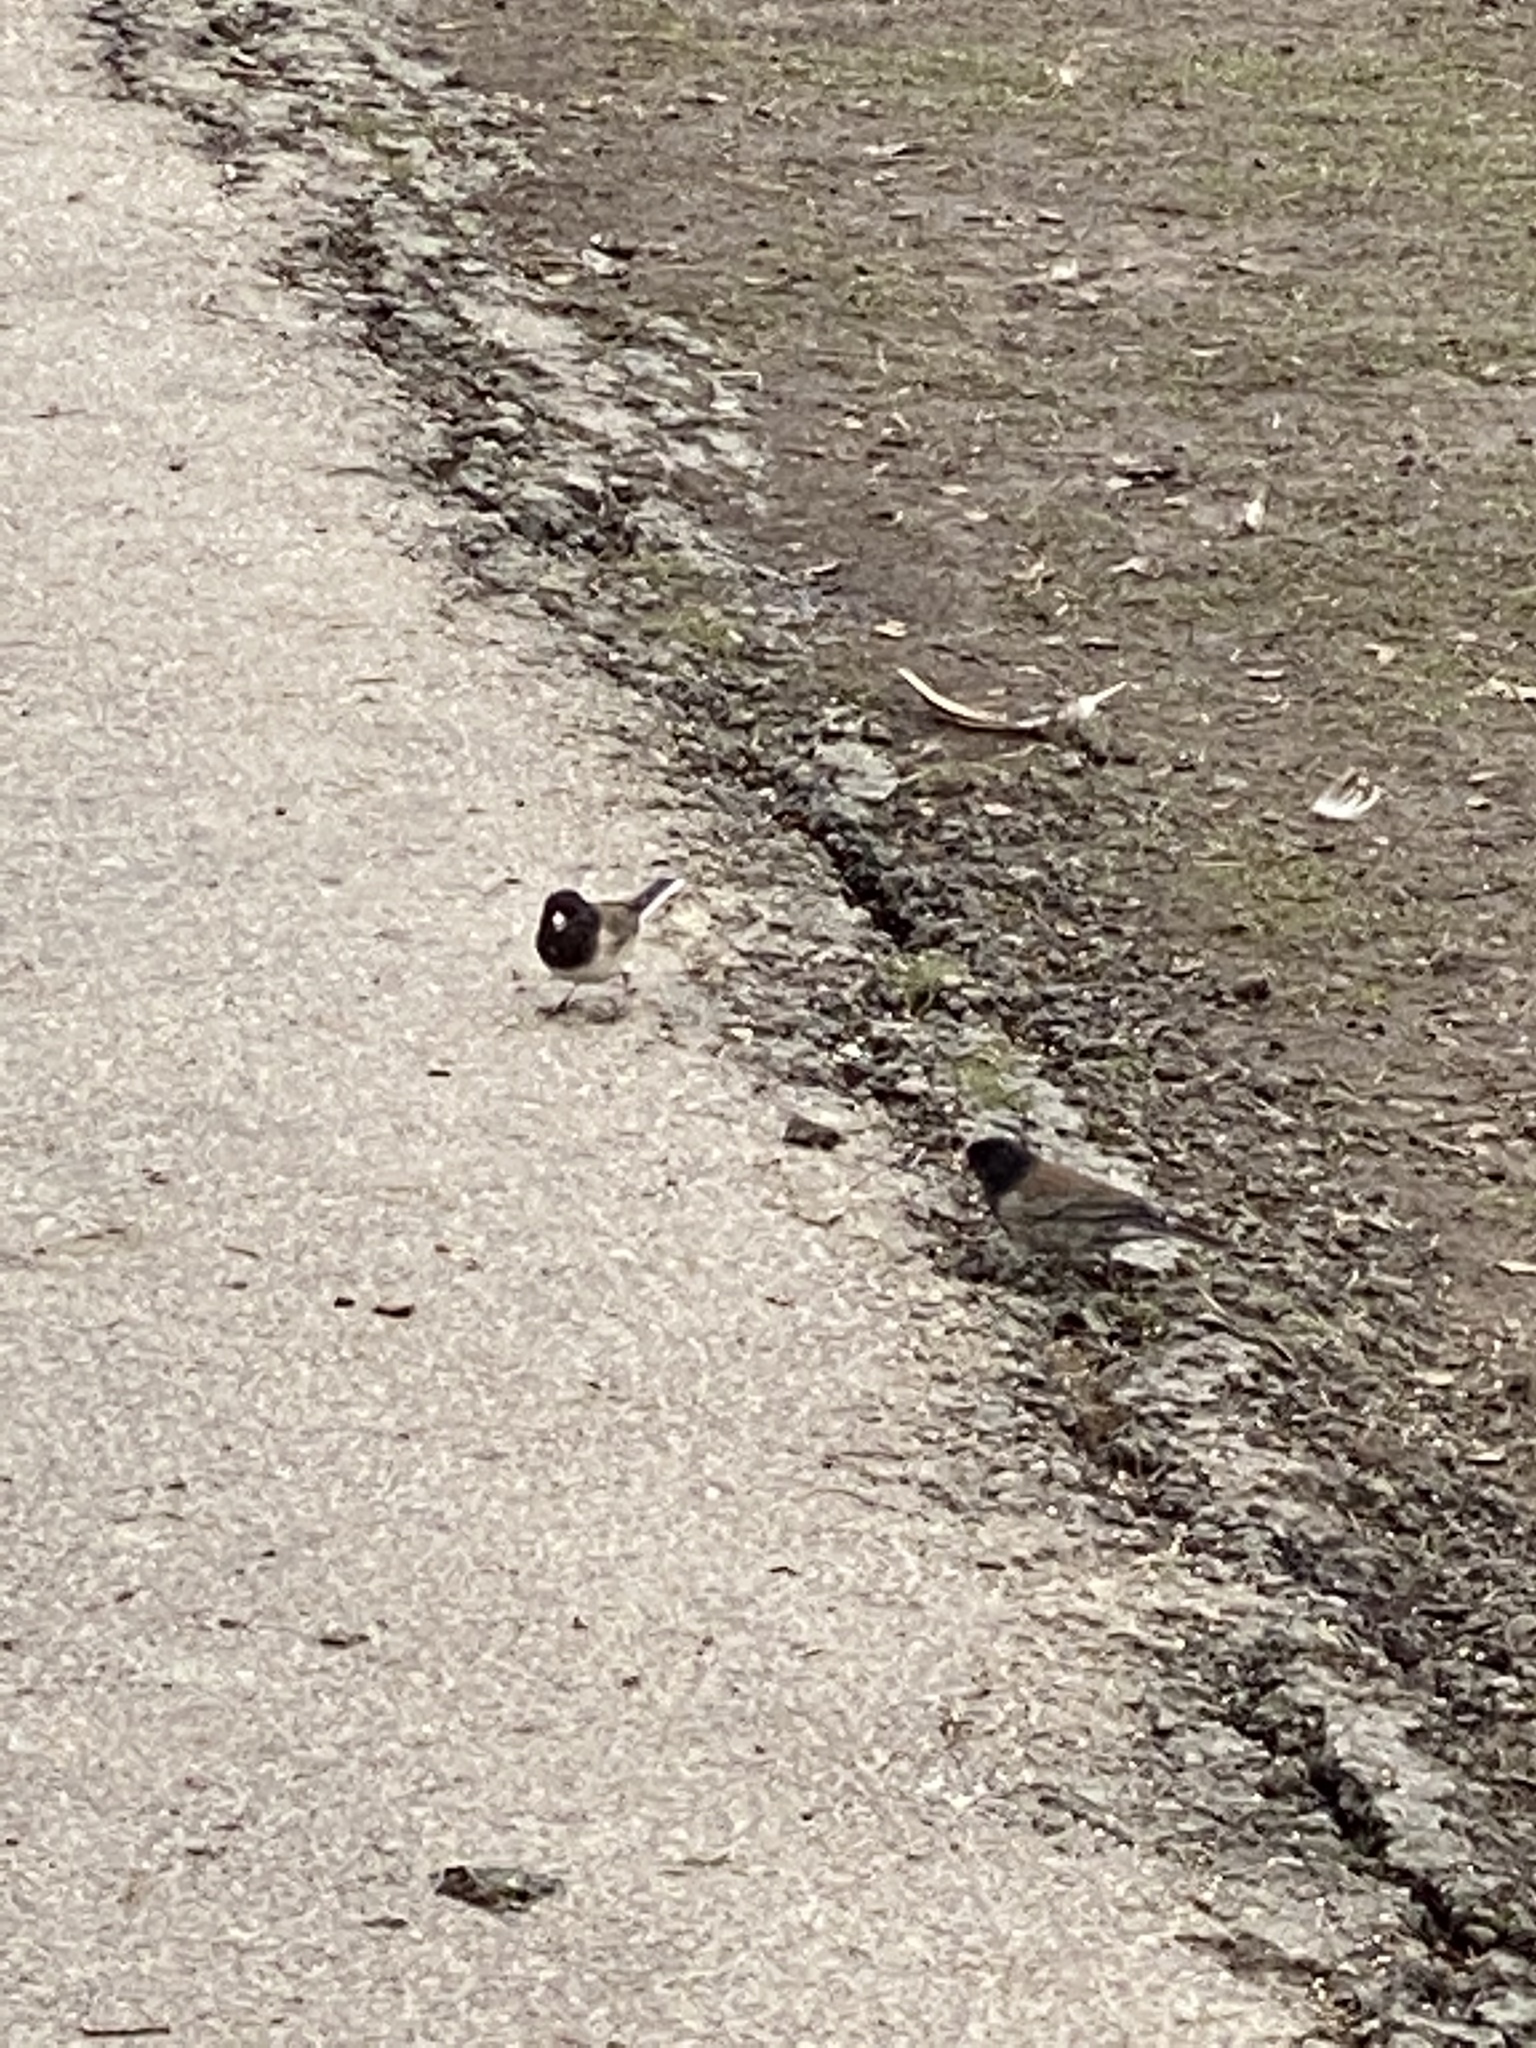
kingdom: Animalia
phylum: Chordata
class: Aves
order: Passeriformes
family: Passerellidae
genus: Junco
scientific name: Junco hyemalis
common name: Dark-eyed junco
